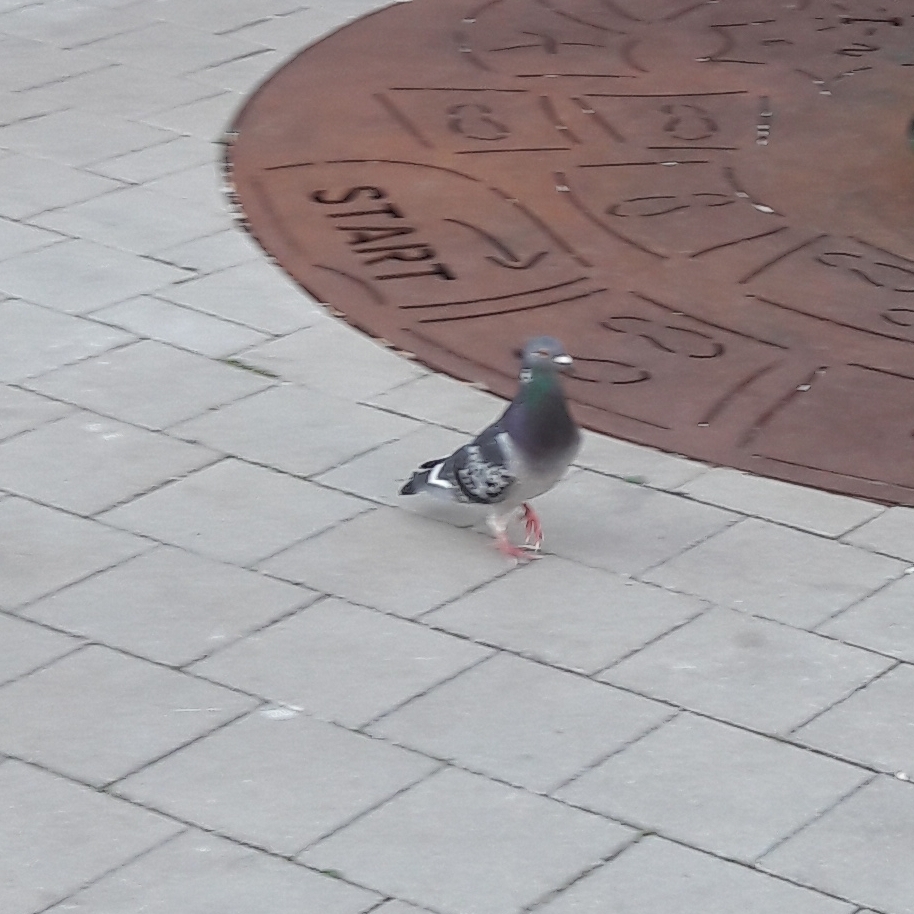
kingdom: Animalia
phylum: Chordata
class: Aves
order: Columbiformes
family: Columbidae
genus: Columba
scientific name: Columba livia
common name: Rock pigeon
